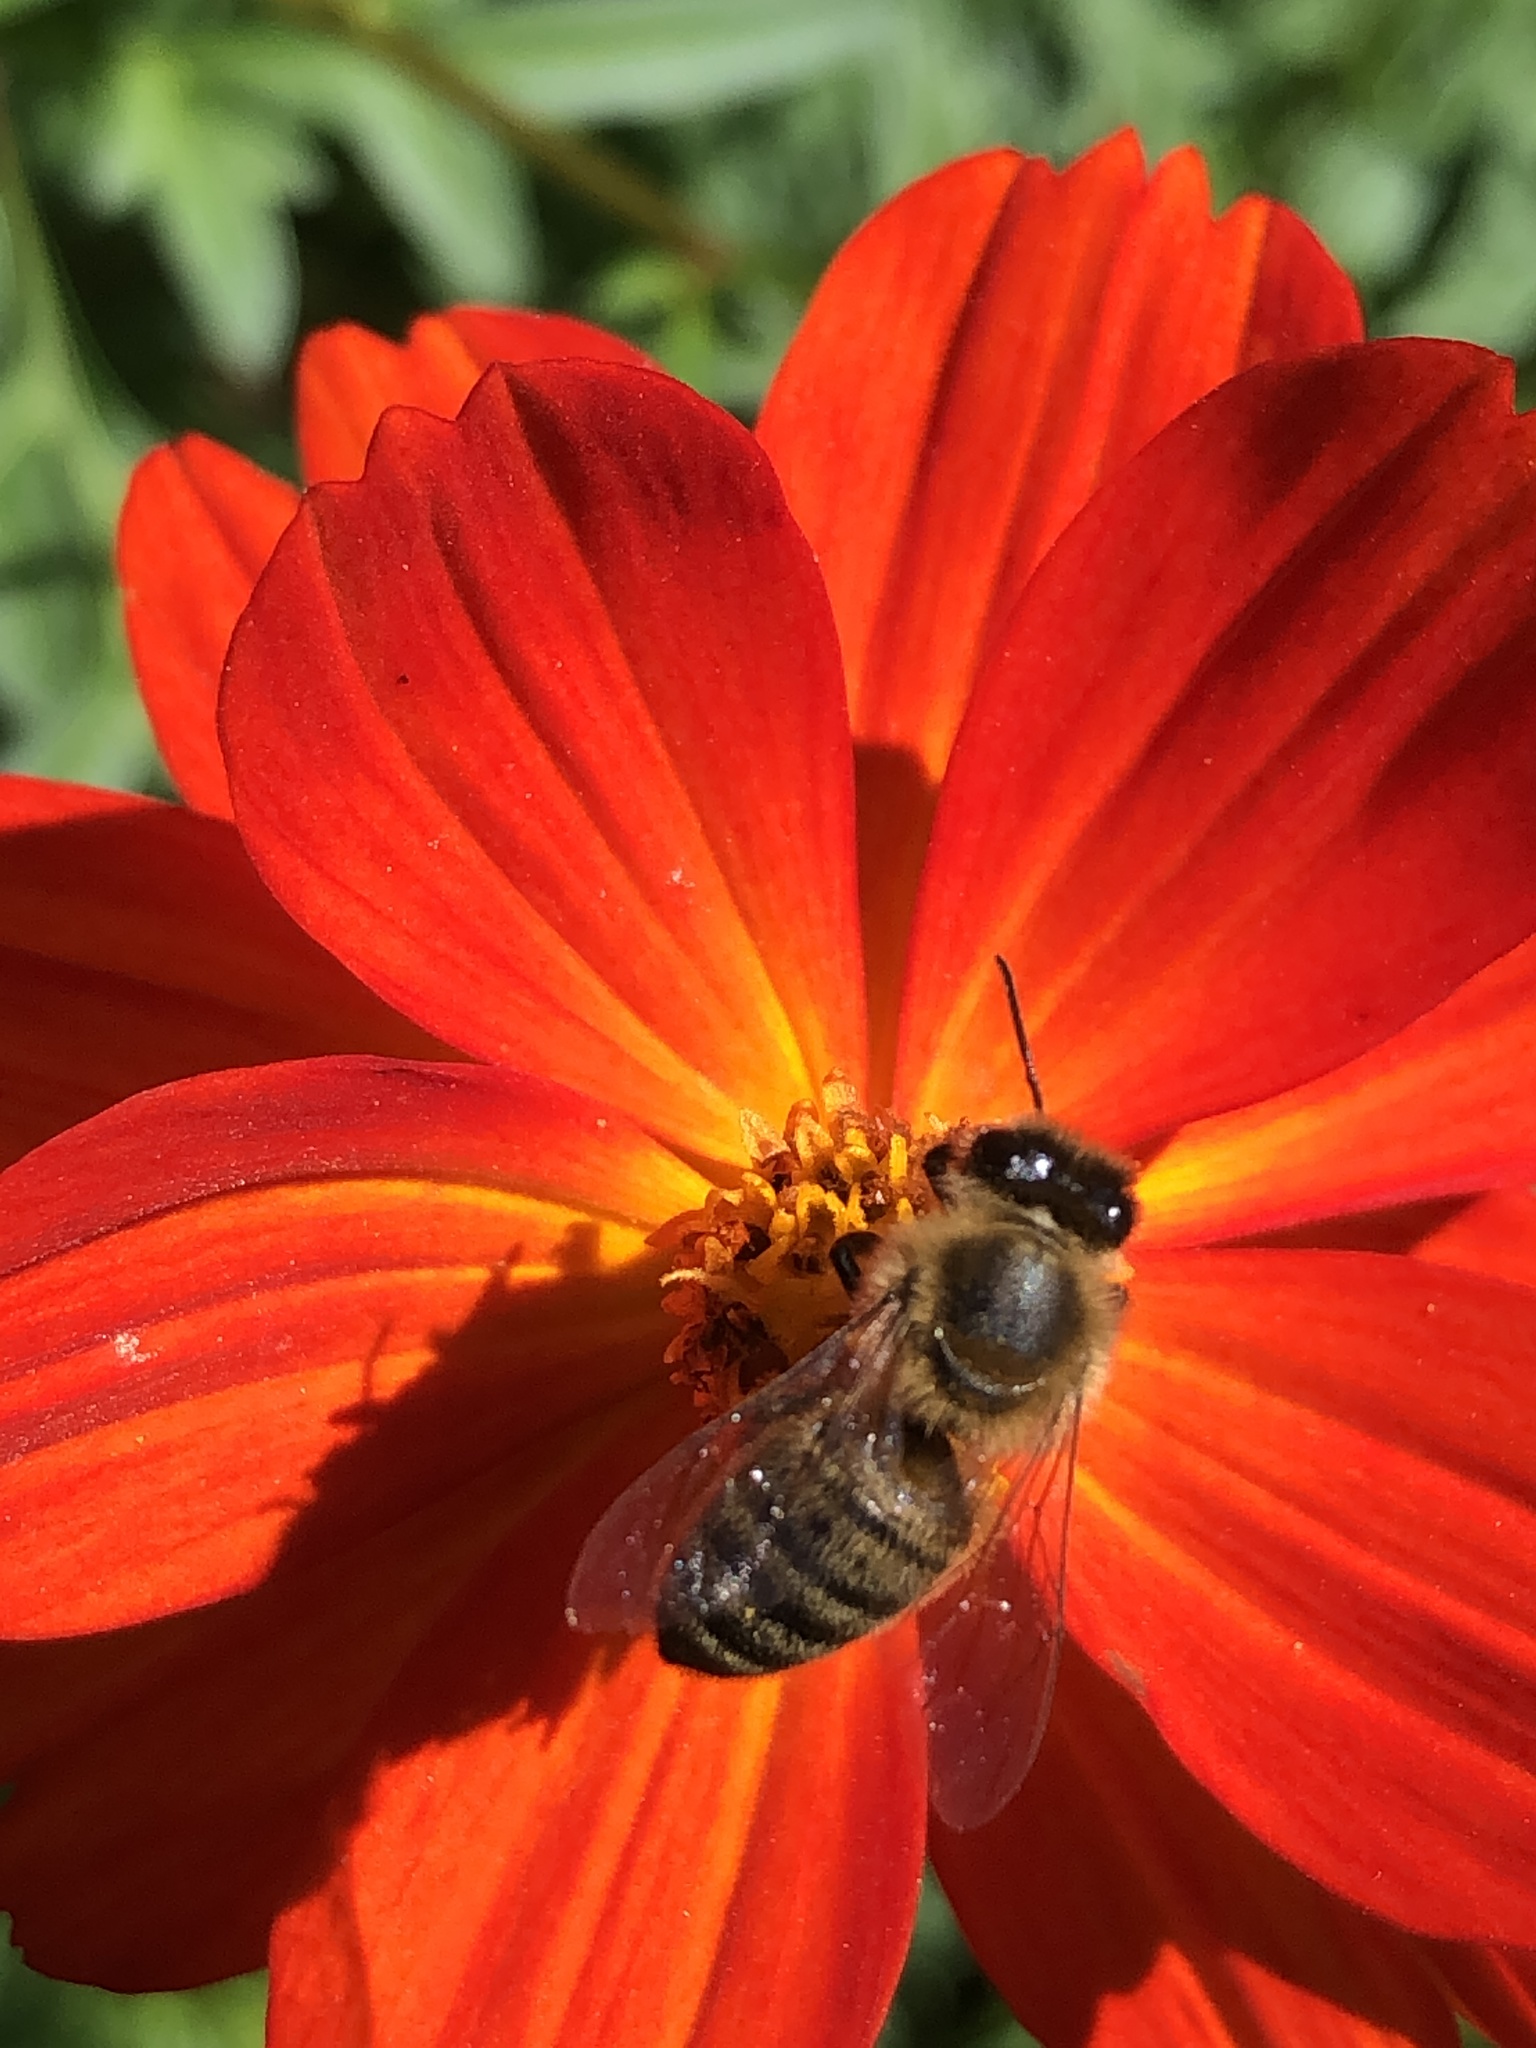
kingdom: Animalia
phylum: Arthropoda
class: Insecta
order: Hymenoptera
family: Apidae
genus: Apis
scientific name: Apis mellifera
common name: Honey bee
